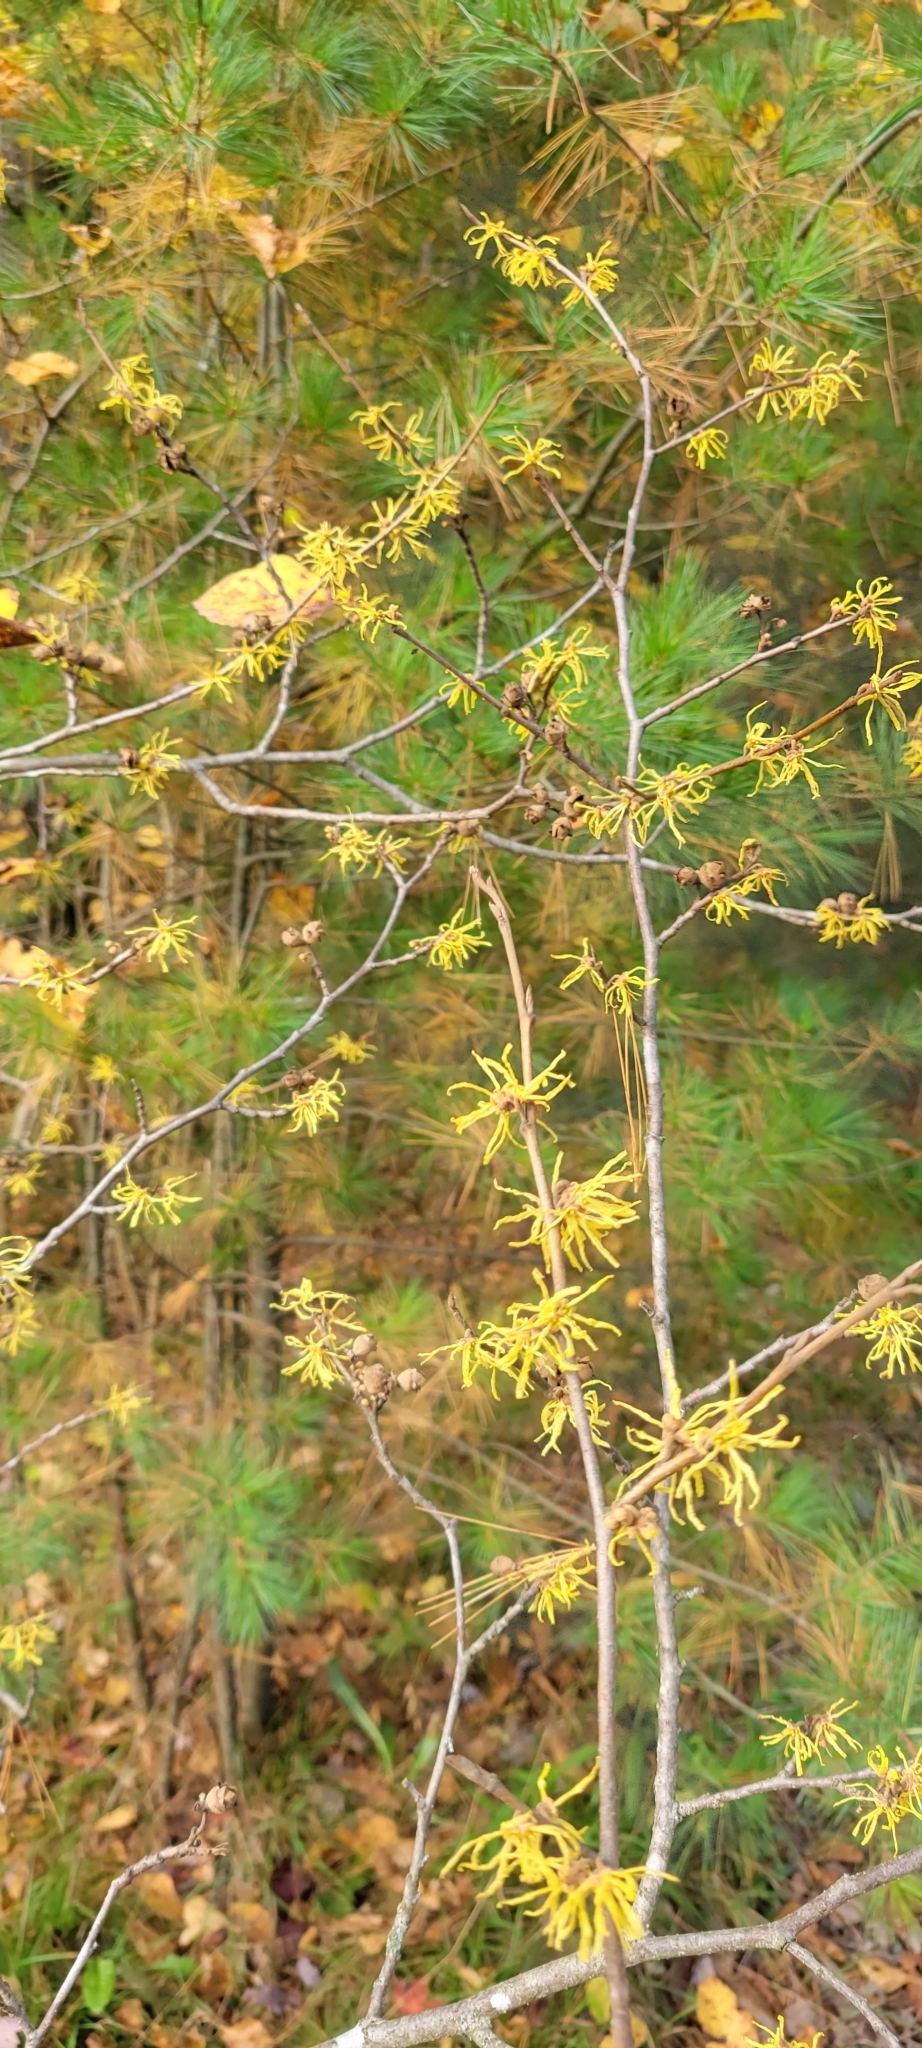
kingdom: Plantae
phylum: Tracheophyta
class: Magnoliopsida
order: Saxifragales
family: Hamamelidaceae
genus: Hamamelis
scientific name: Hamamelis virginiana
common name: Witch-hazel
